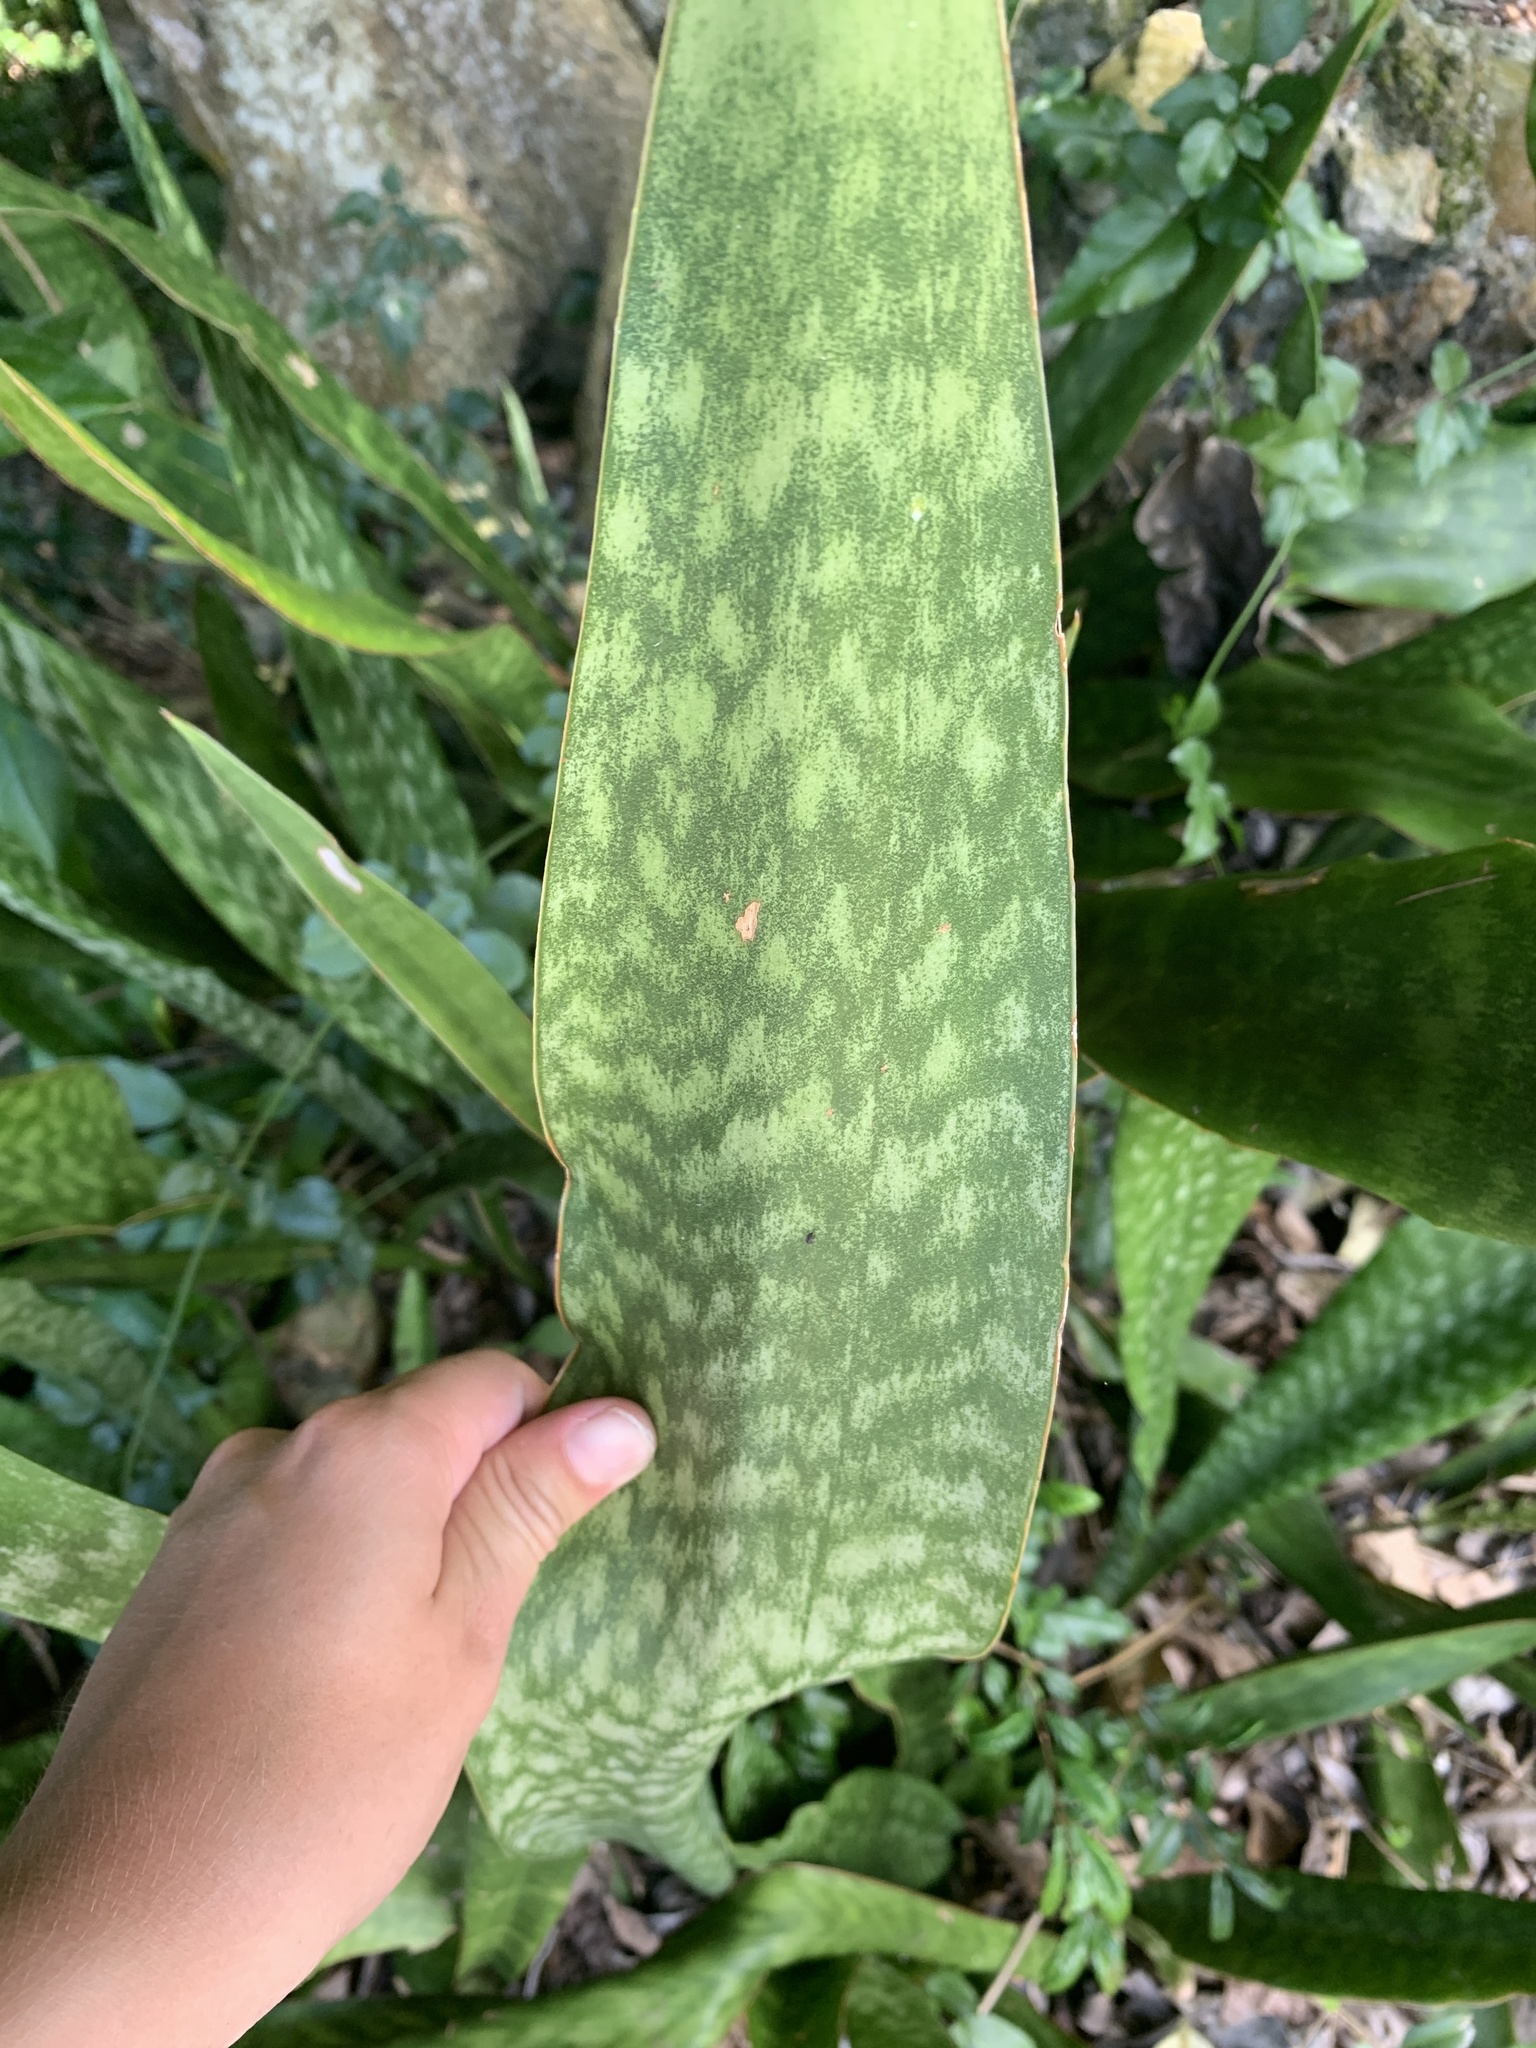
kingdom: Plantae
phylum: Tracheophyta
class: Liliopsida
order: Asparagales
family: Asparagaceae
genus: Dracaena
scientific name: Dracaena hyacinthoides
